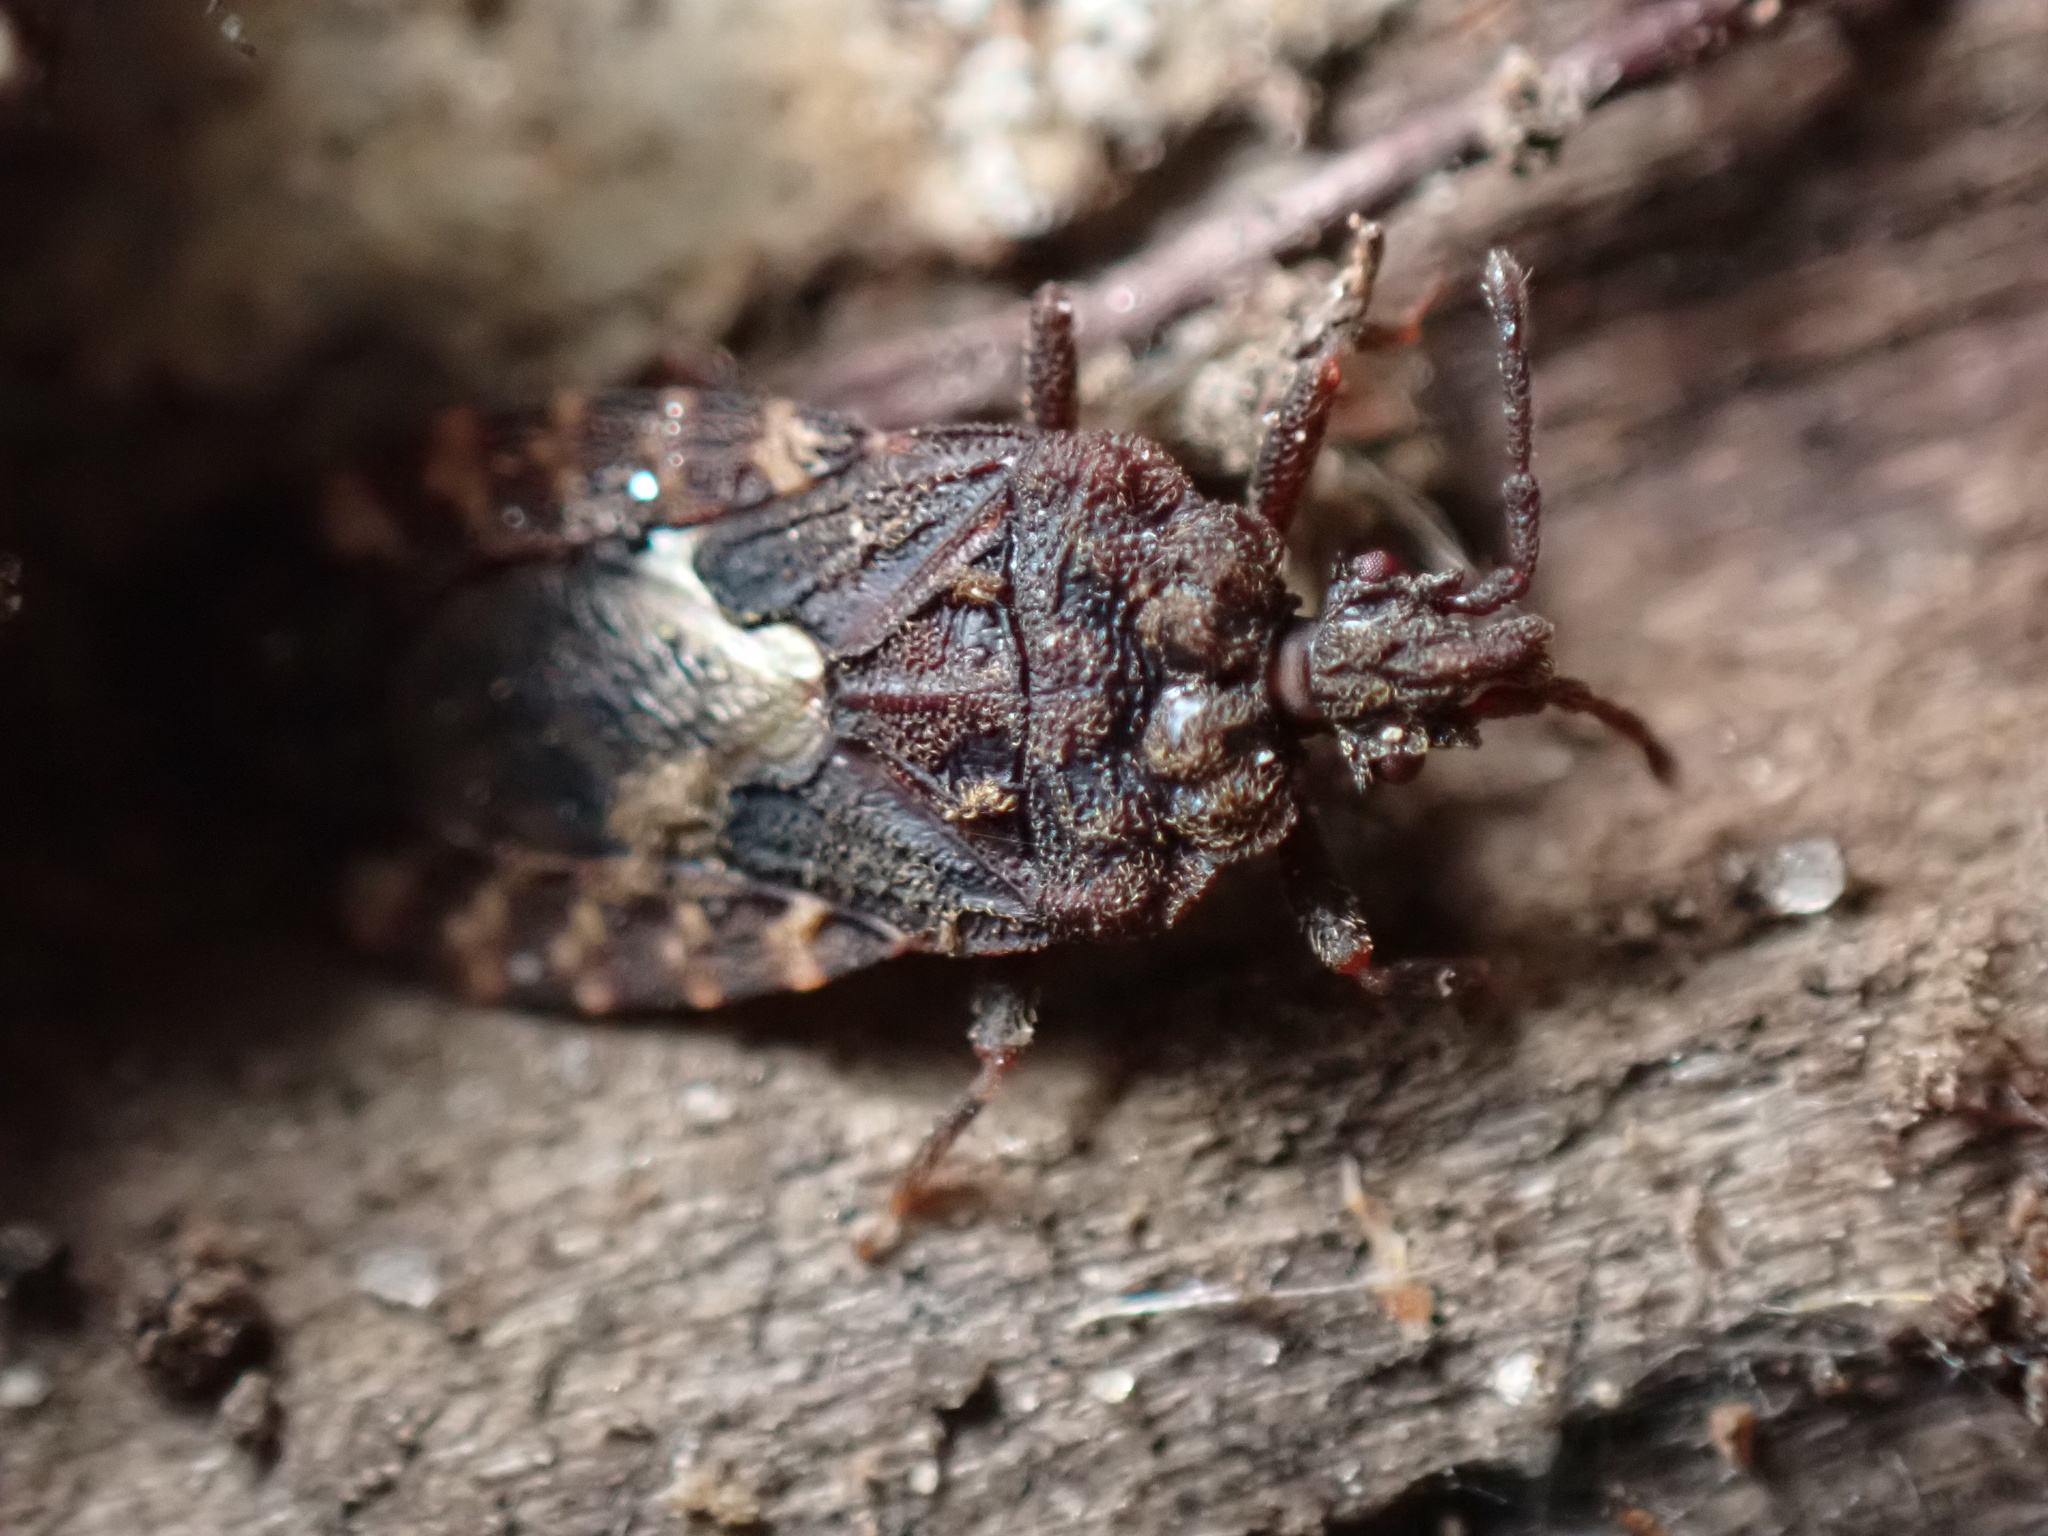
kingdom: Animalia
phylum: Arthropoda
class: Insecta
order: Hemiptera
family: Aradidae
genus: Mezira
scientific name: Mezira
